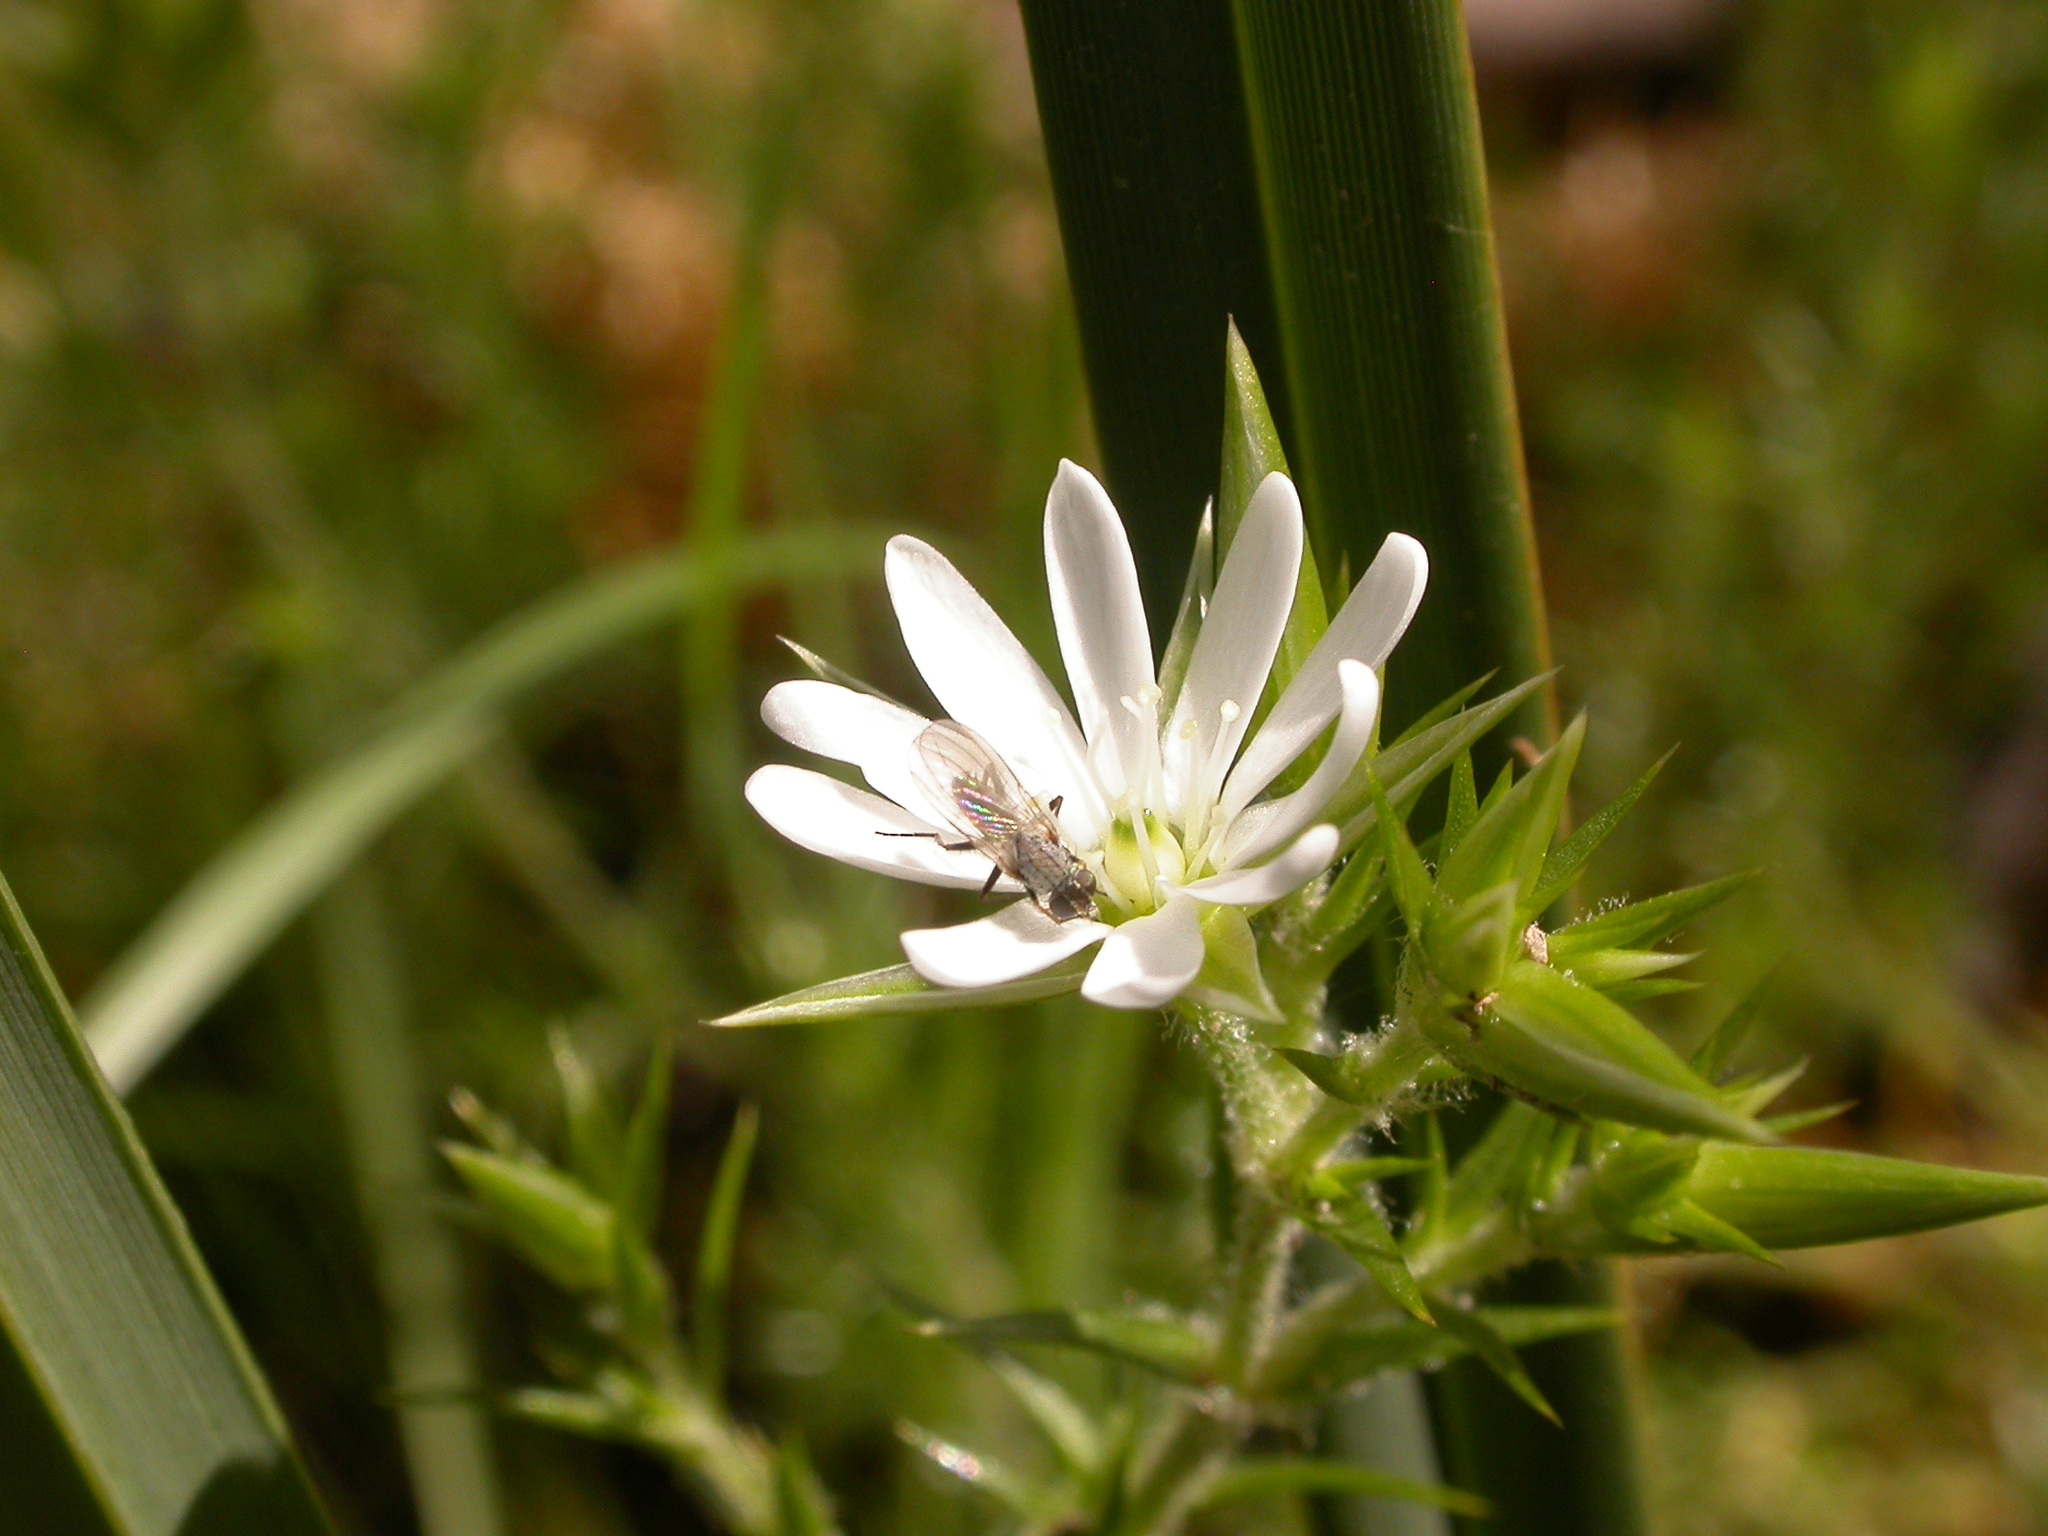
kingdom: Plantae
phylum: Tracheophyta
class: Magnoliopsida
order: Caryophyllales
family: Caryophyllaceae
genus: Stellaria
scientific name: Stellaria pungens
